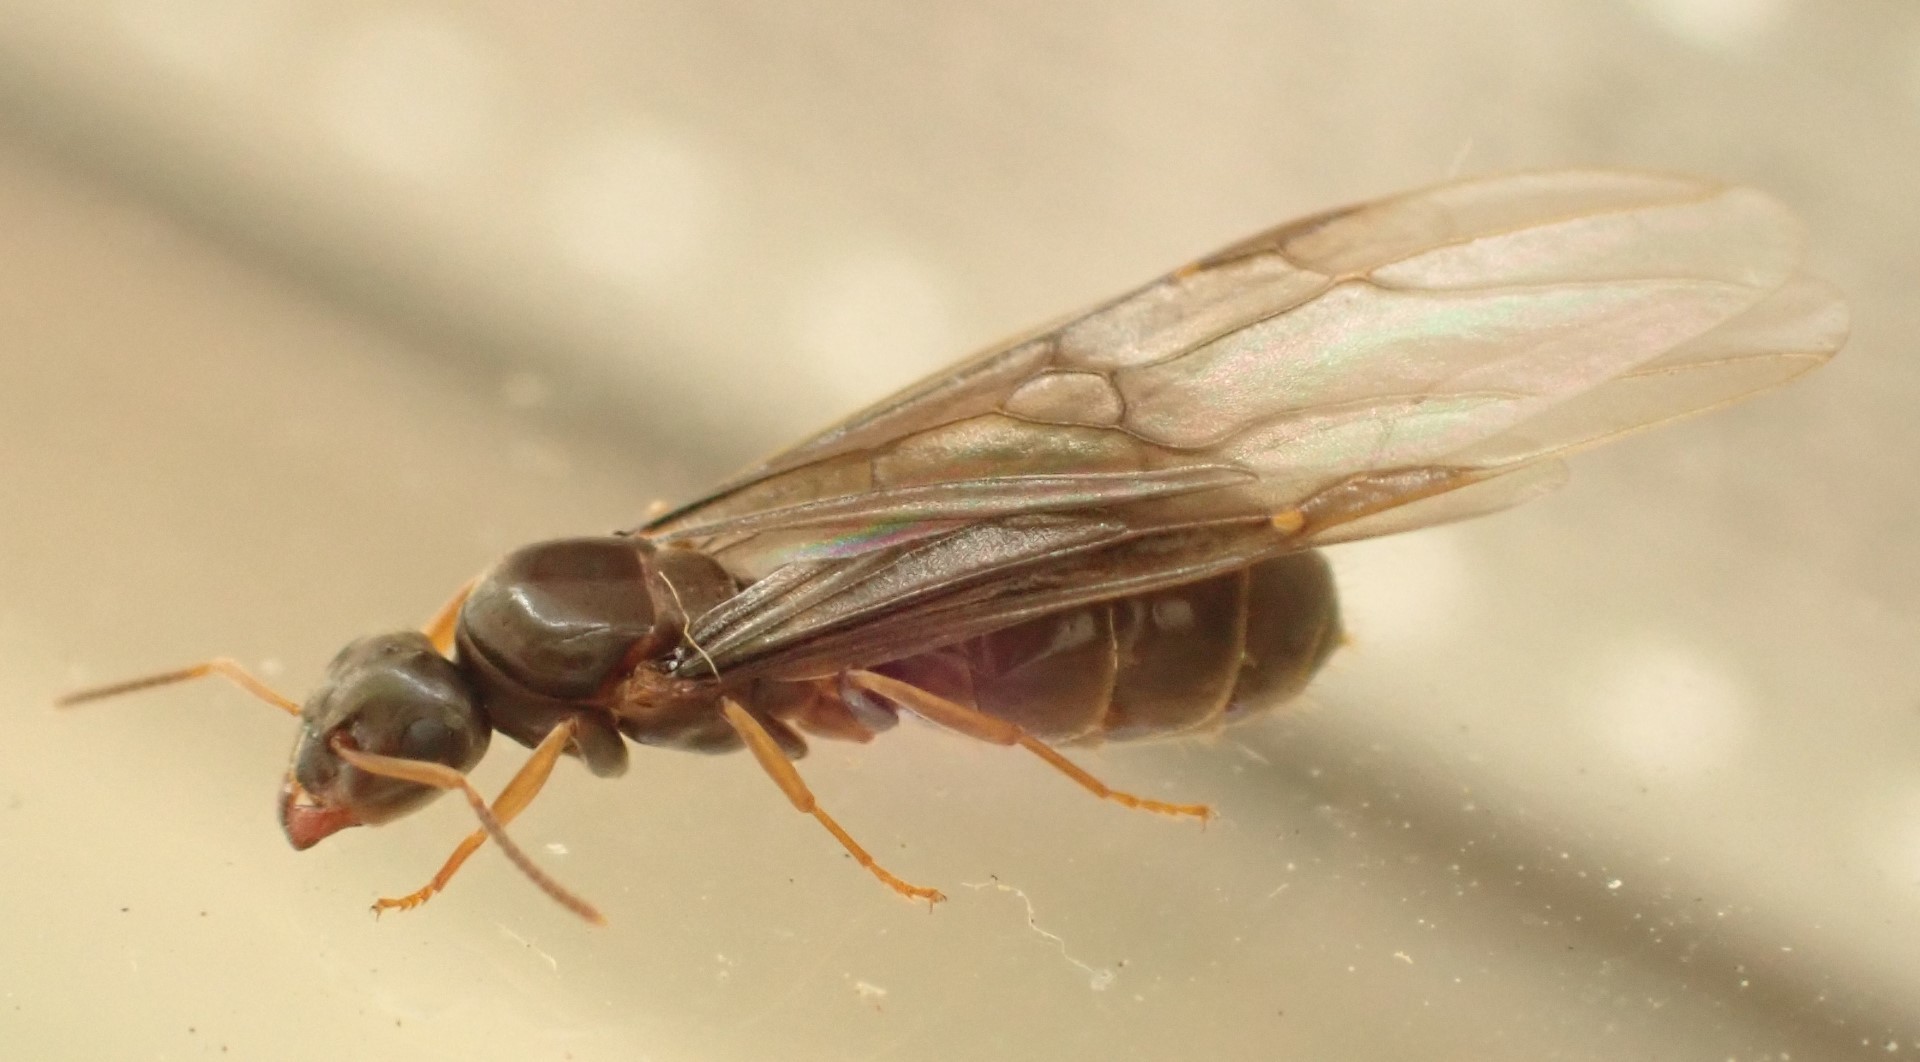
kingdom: Animalia
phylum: Arthropoda
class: Insecta
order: Hymenoptera
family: Formicidae
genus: Lasius
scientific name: Lasius brunneus
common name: Brown ant
